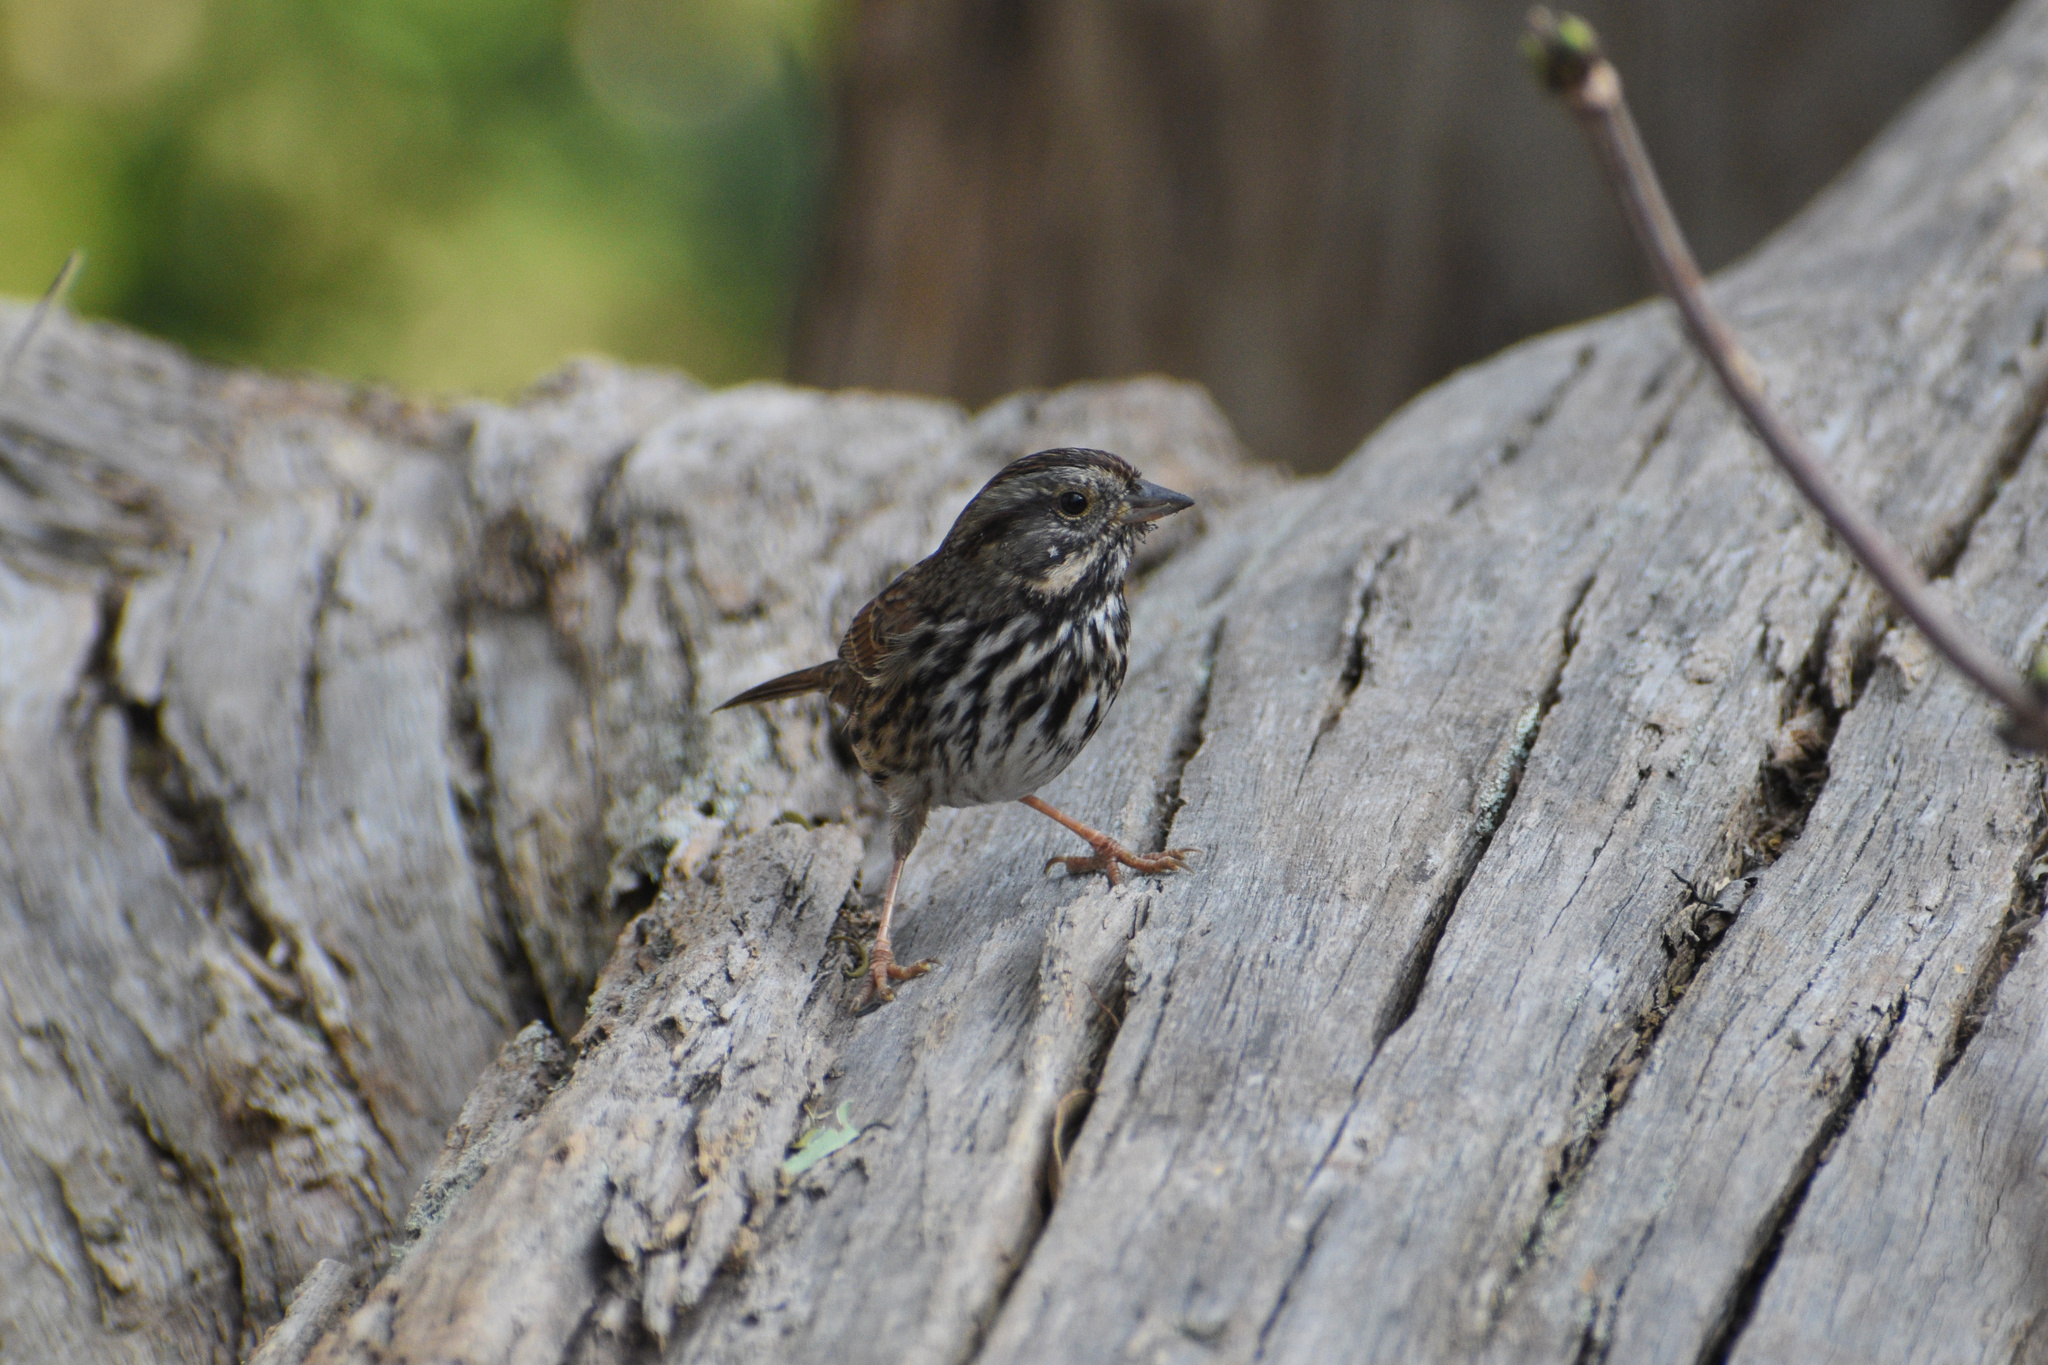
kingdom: Animalia
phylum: Chordata
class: Aves
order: Passeriformes
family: Passerellidae
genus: Melospiza
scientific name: Melospiza melodia
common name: Song sparrow
